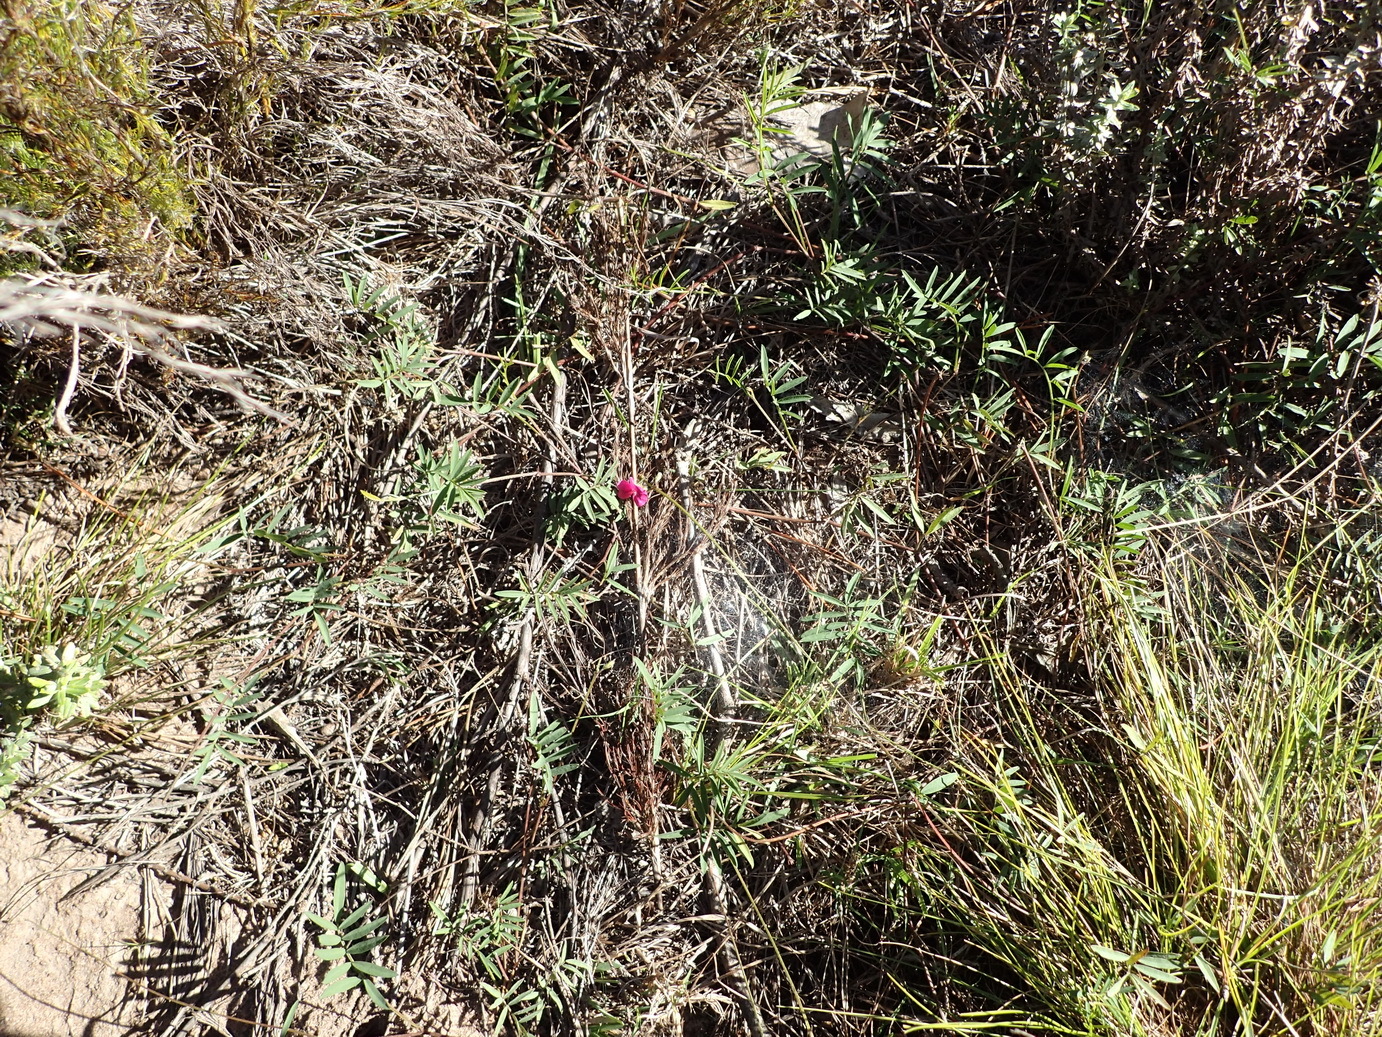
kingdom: Plantae
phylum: Tracheophyta
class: Magnoliopsida
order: Fabales
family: Fabaceae
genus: Tephrosia
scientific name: Tephrosia capensis
